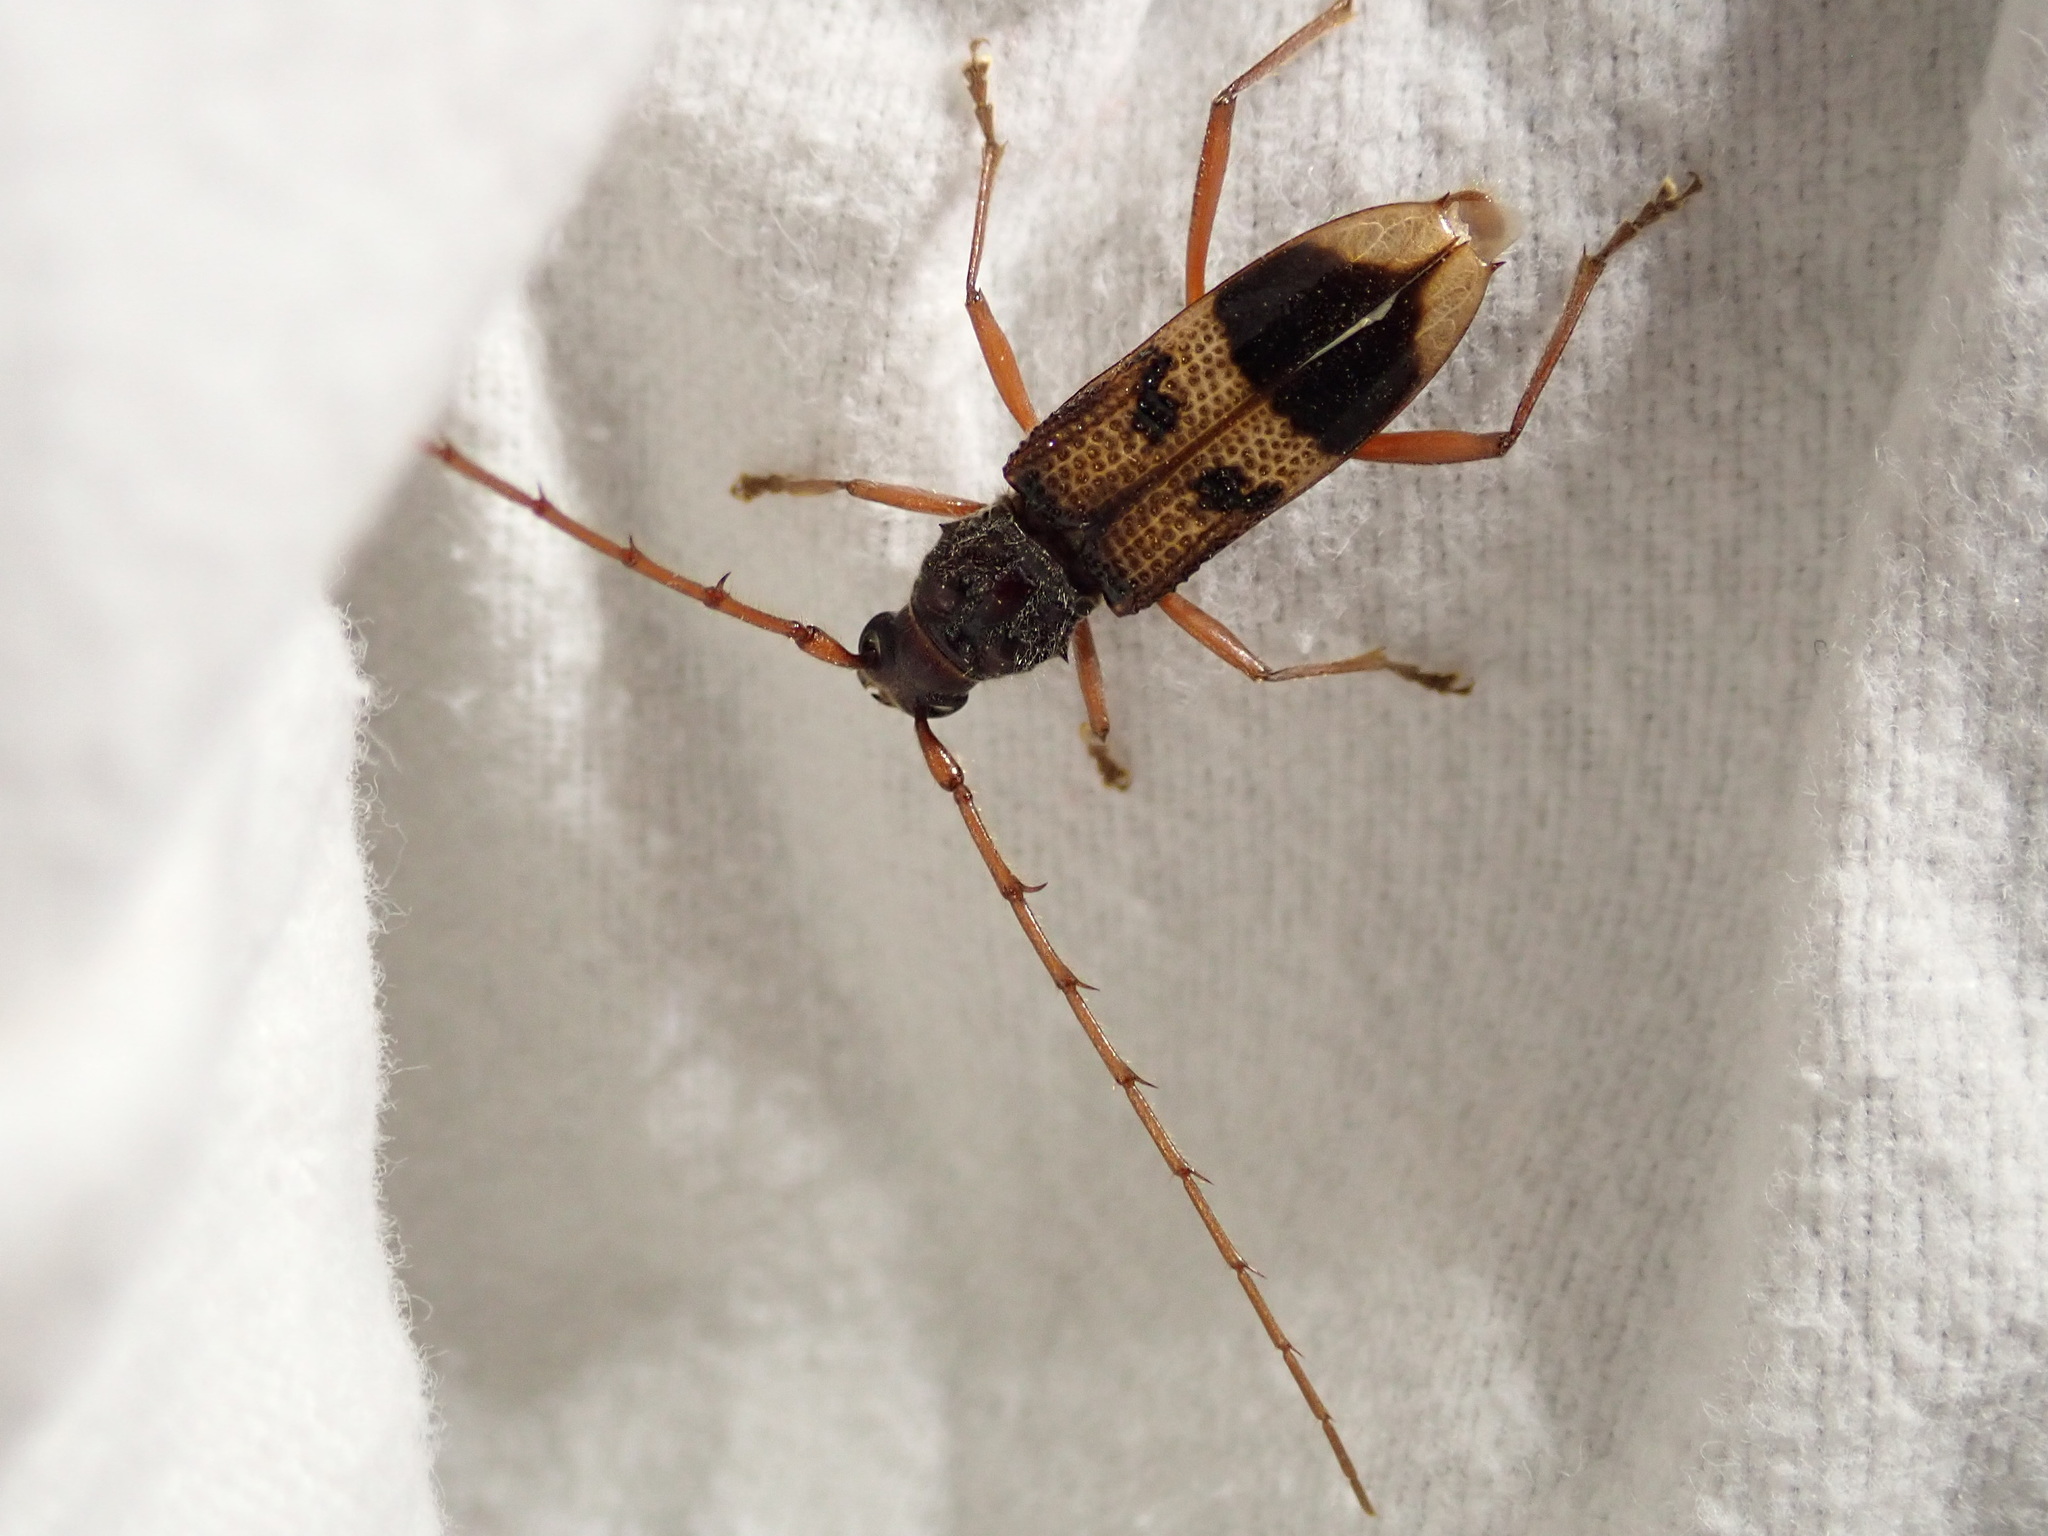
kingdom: Animalia
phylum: Arthropoda
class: Insecta
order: Coleoptera
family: Cerambycidae
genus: Phoracantha
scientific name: Phoracantha recurva
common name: Eucalyptus longhorned borer
